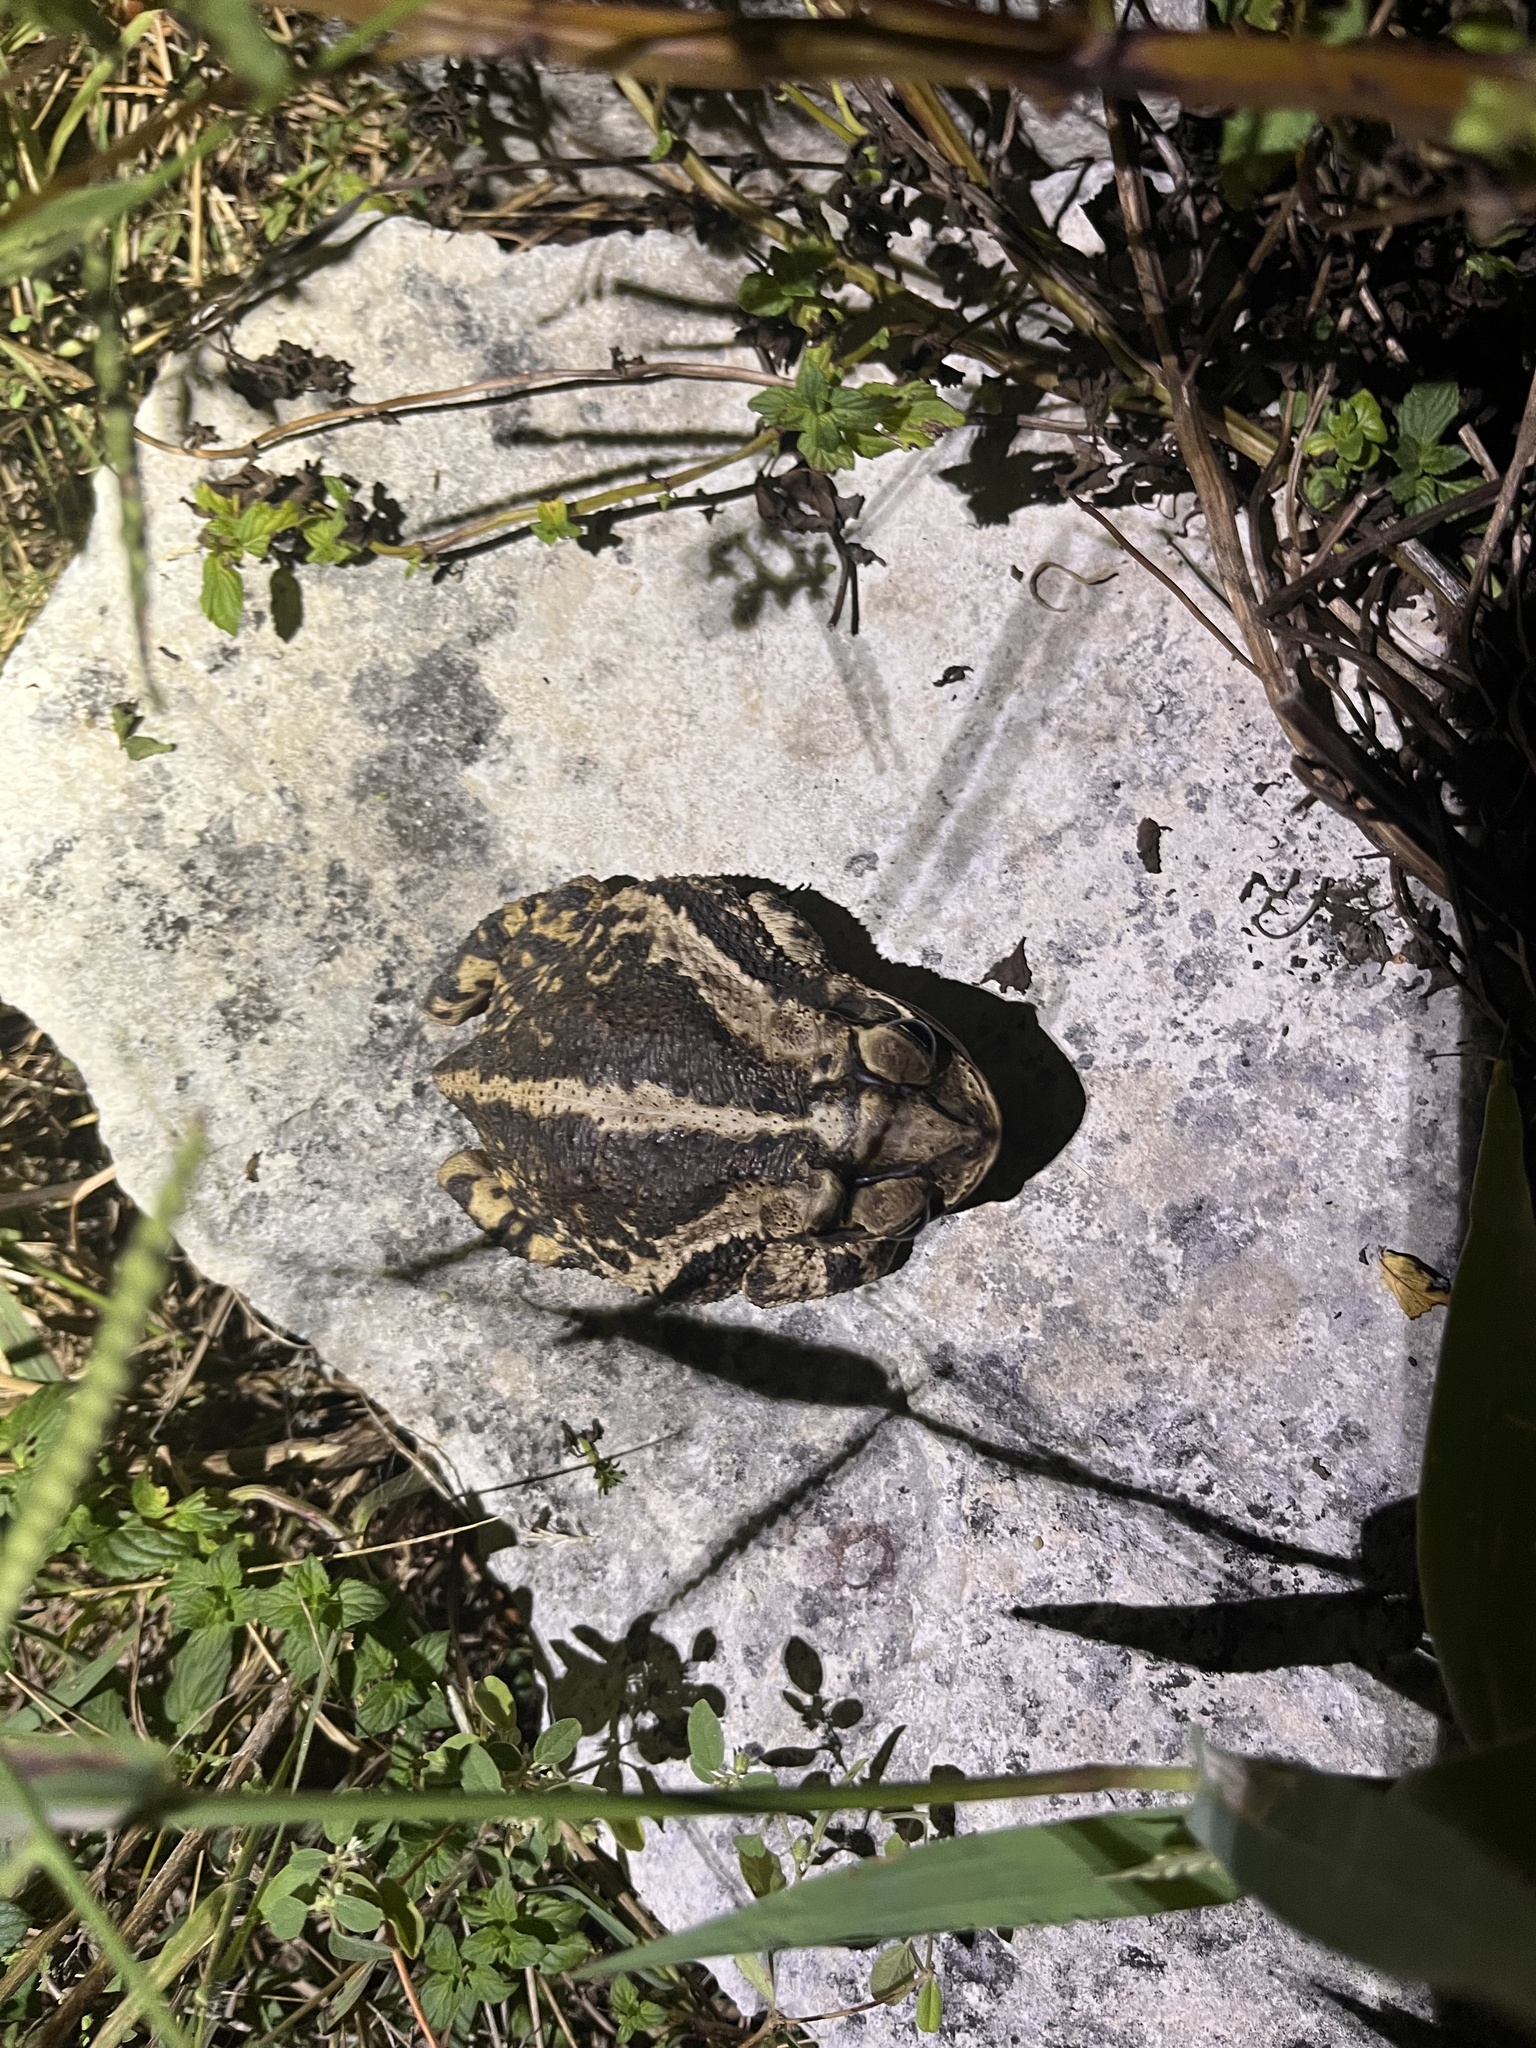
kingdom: Animalia
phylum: Chordata
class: Amphibia
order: Anura
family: Bufonidae
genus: Incilius
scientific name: Incilius nebulifer
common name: Gulf coast toad
